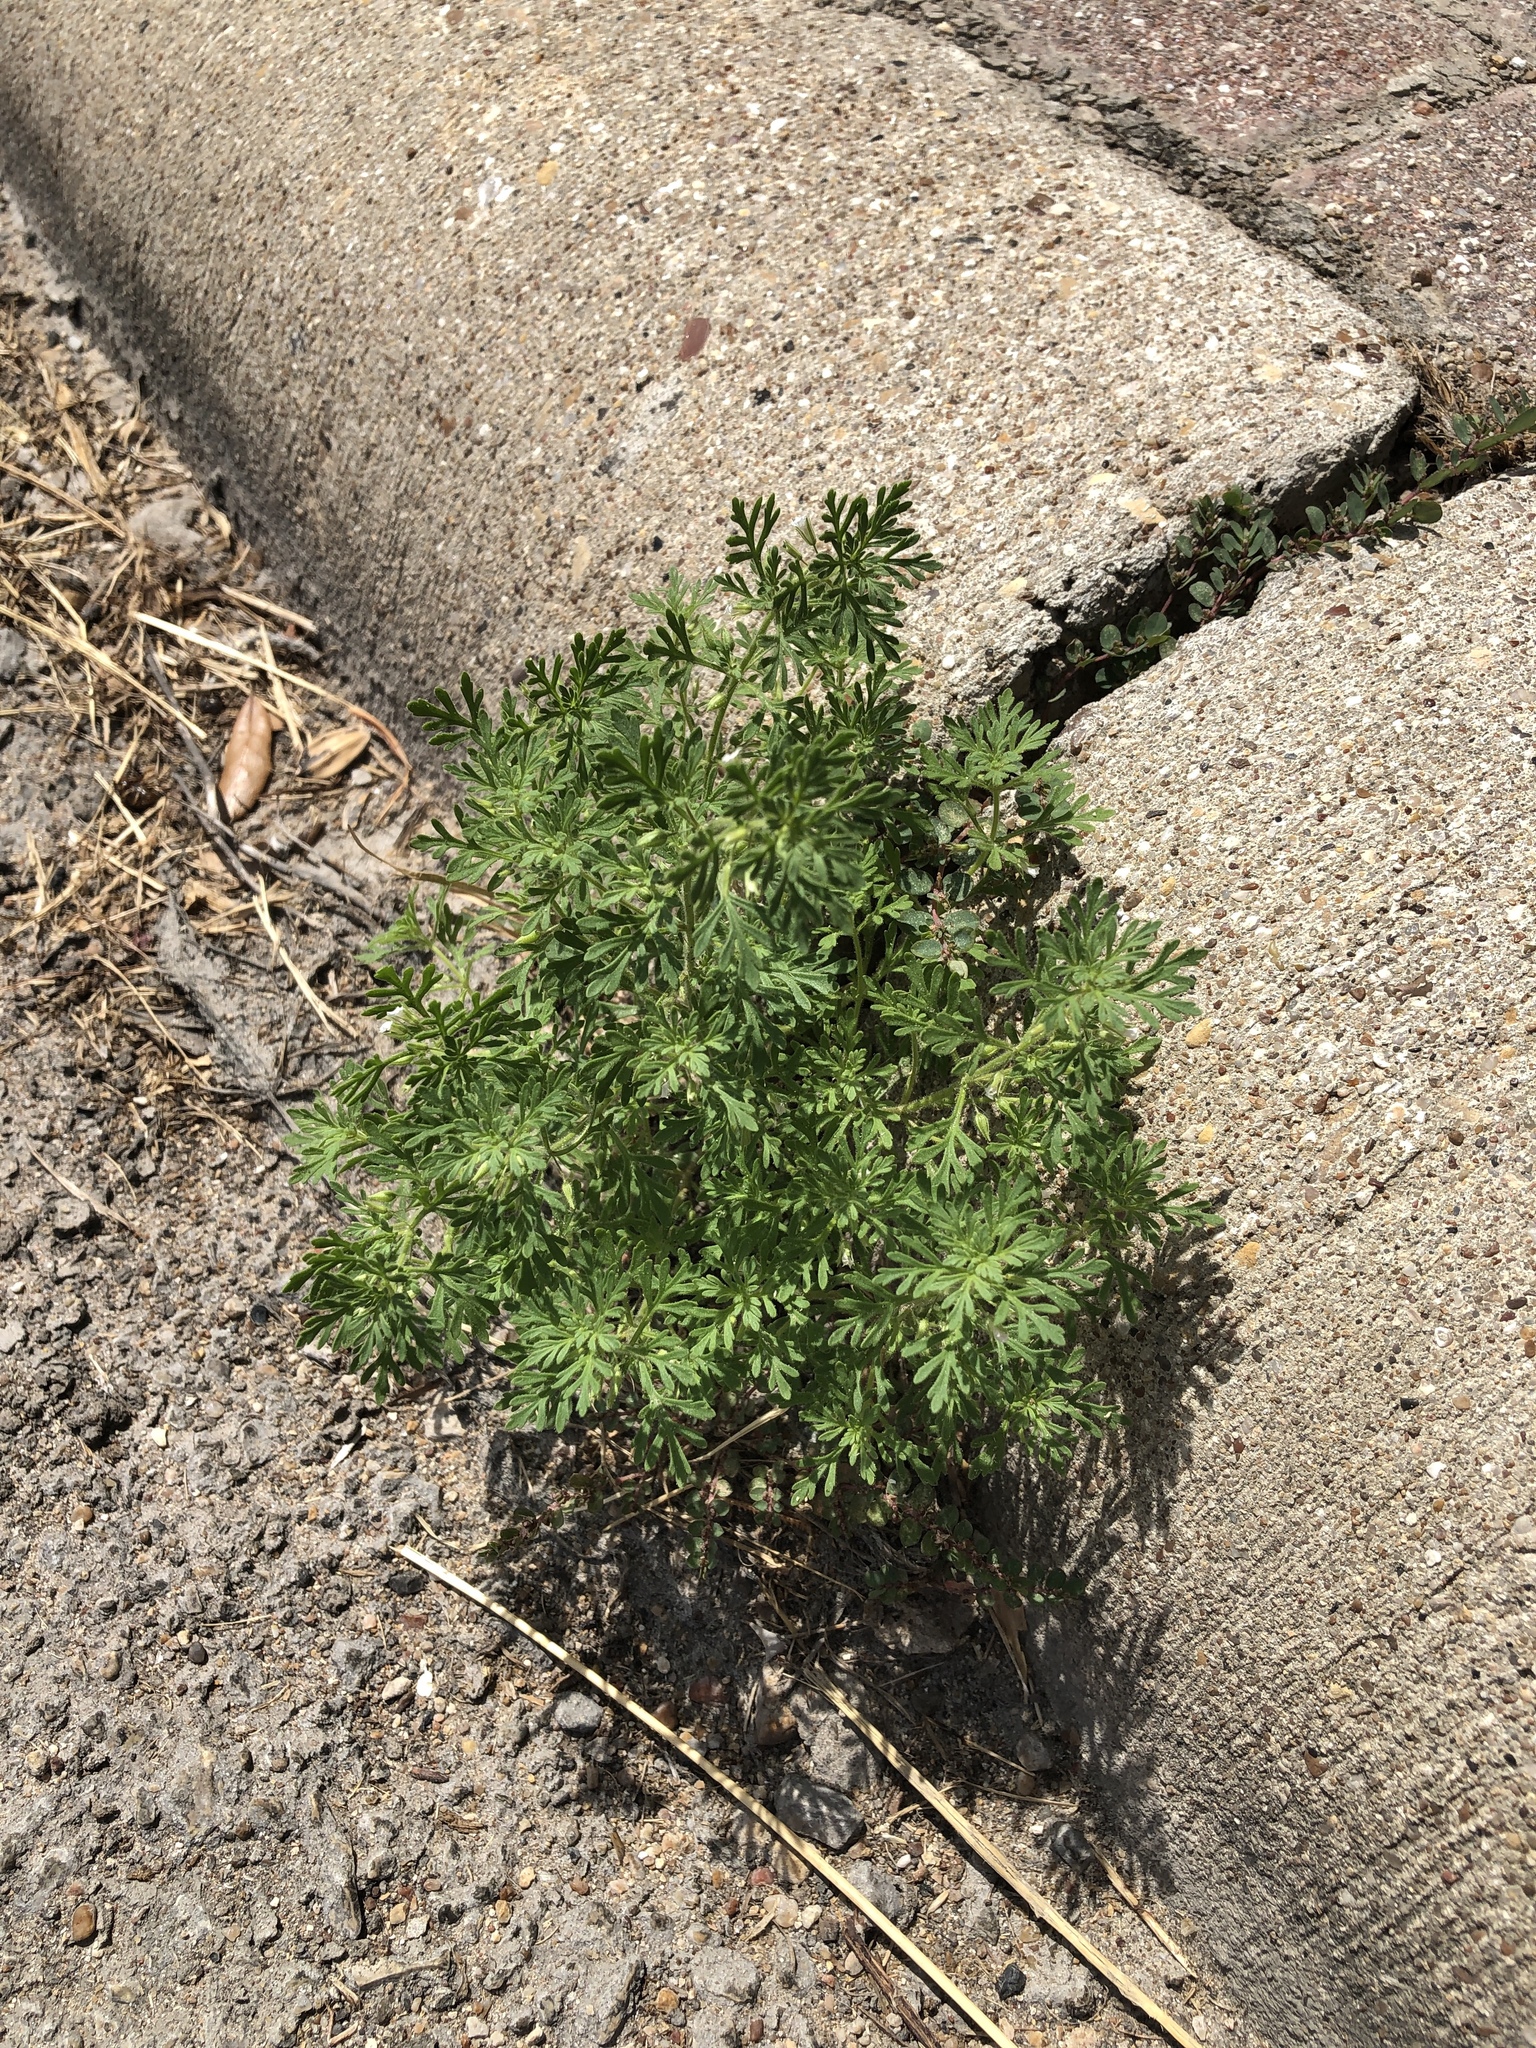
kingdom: Plantae
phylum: Tracheophyta
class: Magnoliopsida
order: Lamiales
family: Plantaginaceae
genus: Leucospora
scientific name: Leucospora multifida
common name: Narrow-leaf paleseed
